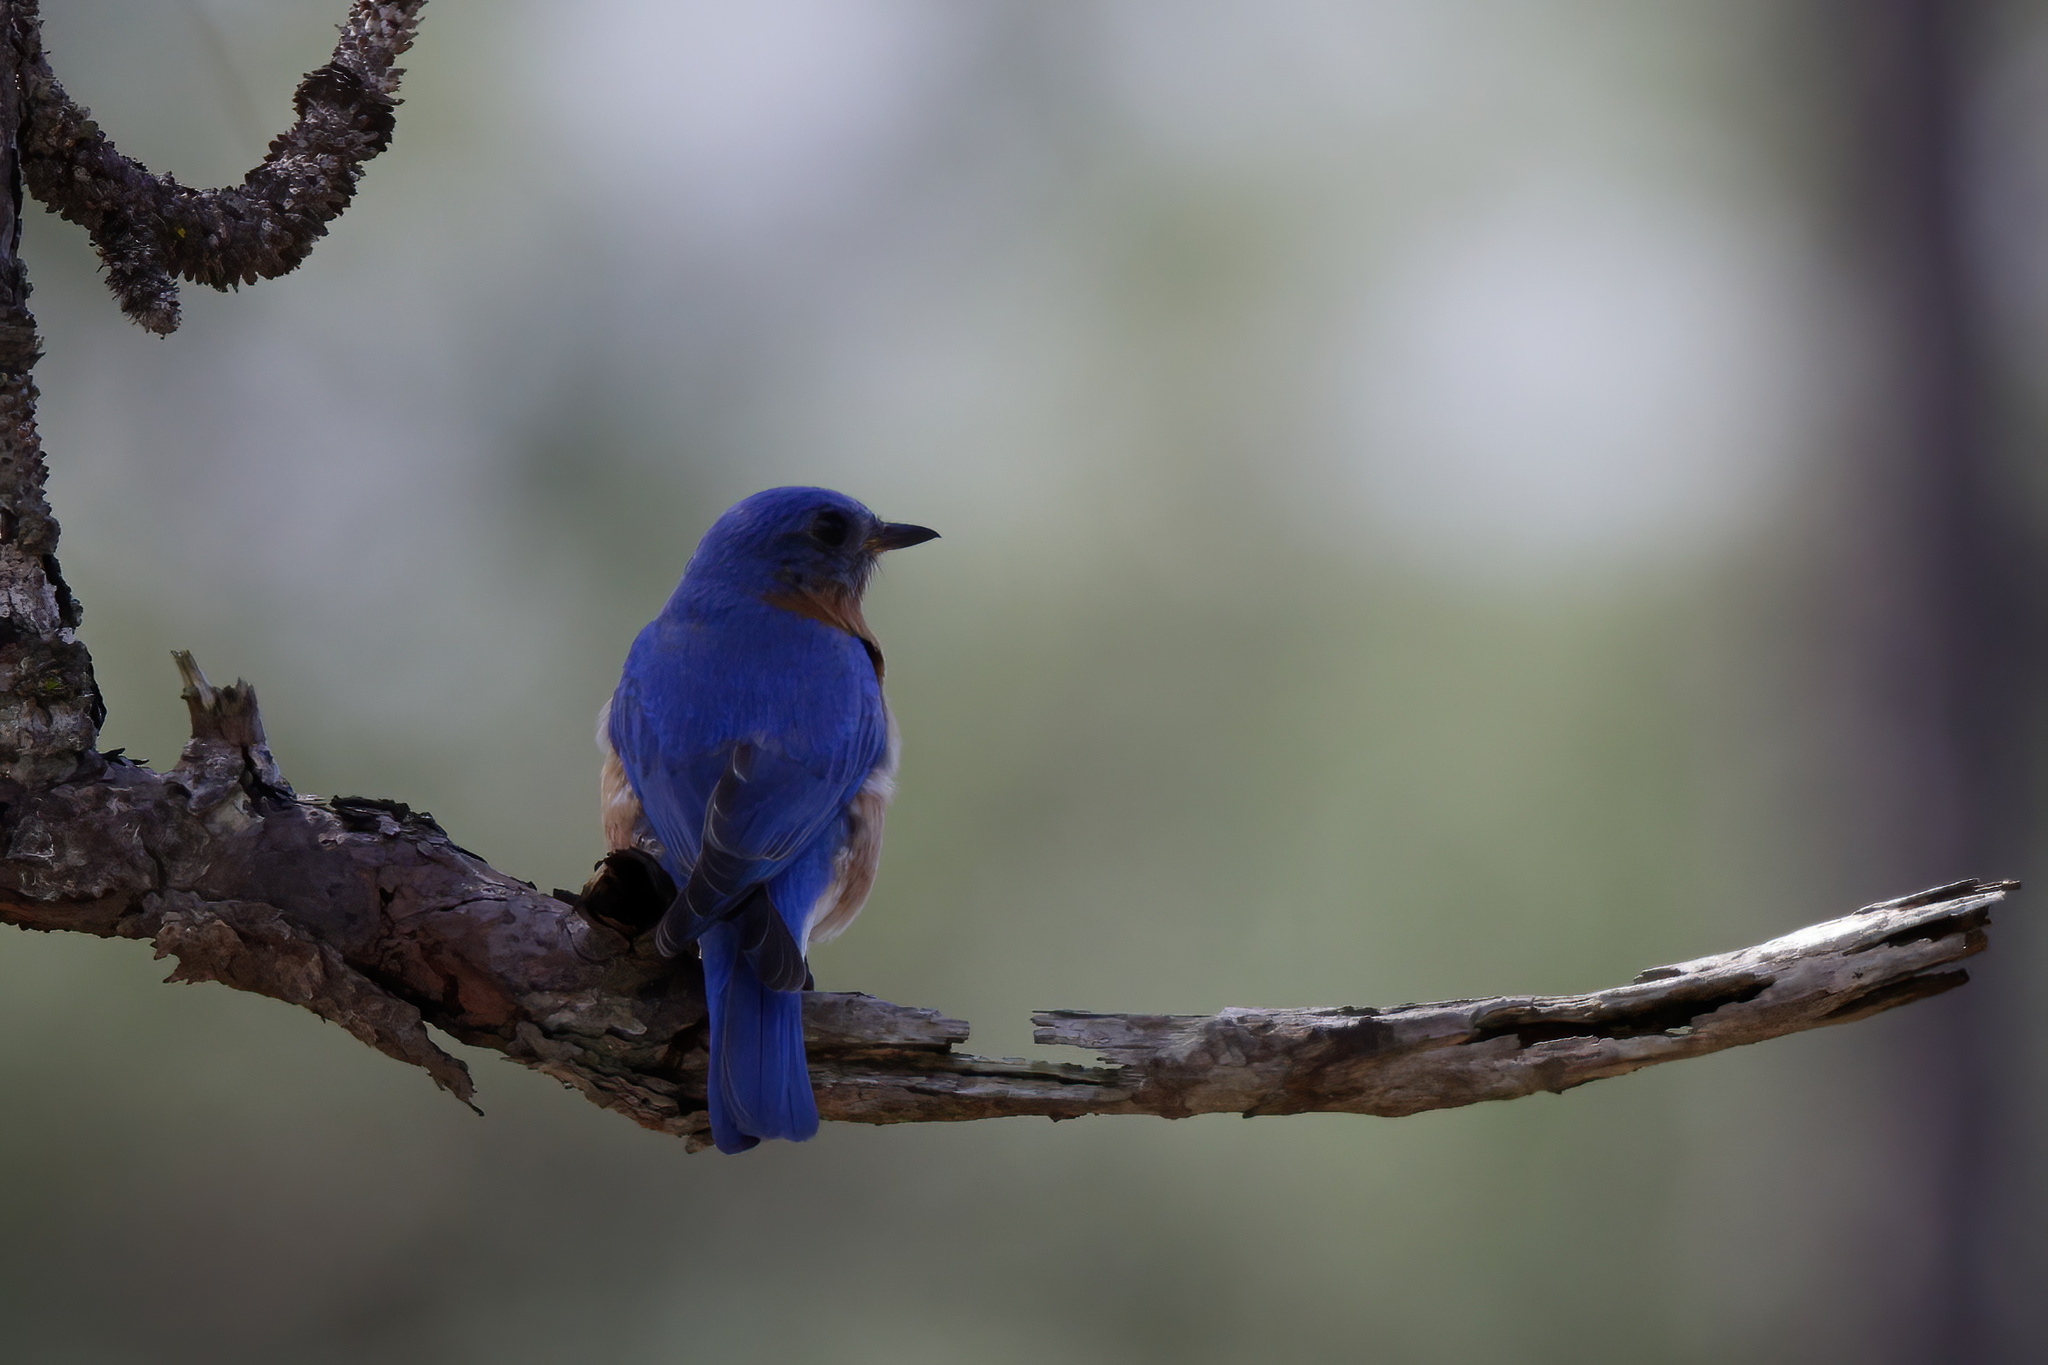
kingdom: Animalia
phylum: Chordata
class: Aves
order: Passeriformes
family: Turdidae
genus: Sialia
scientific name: Sialia sialis
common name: Eastern bluebird
